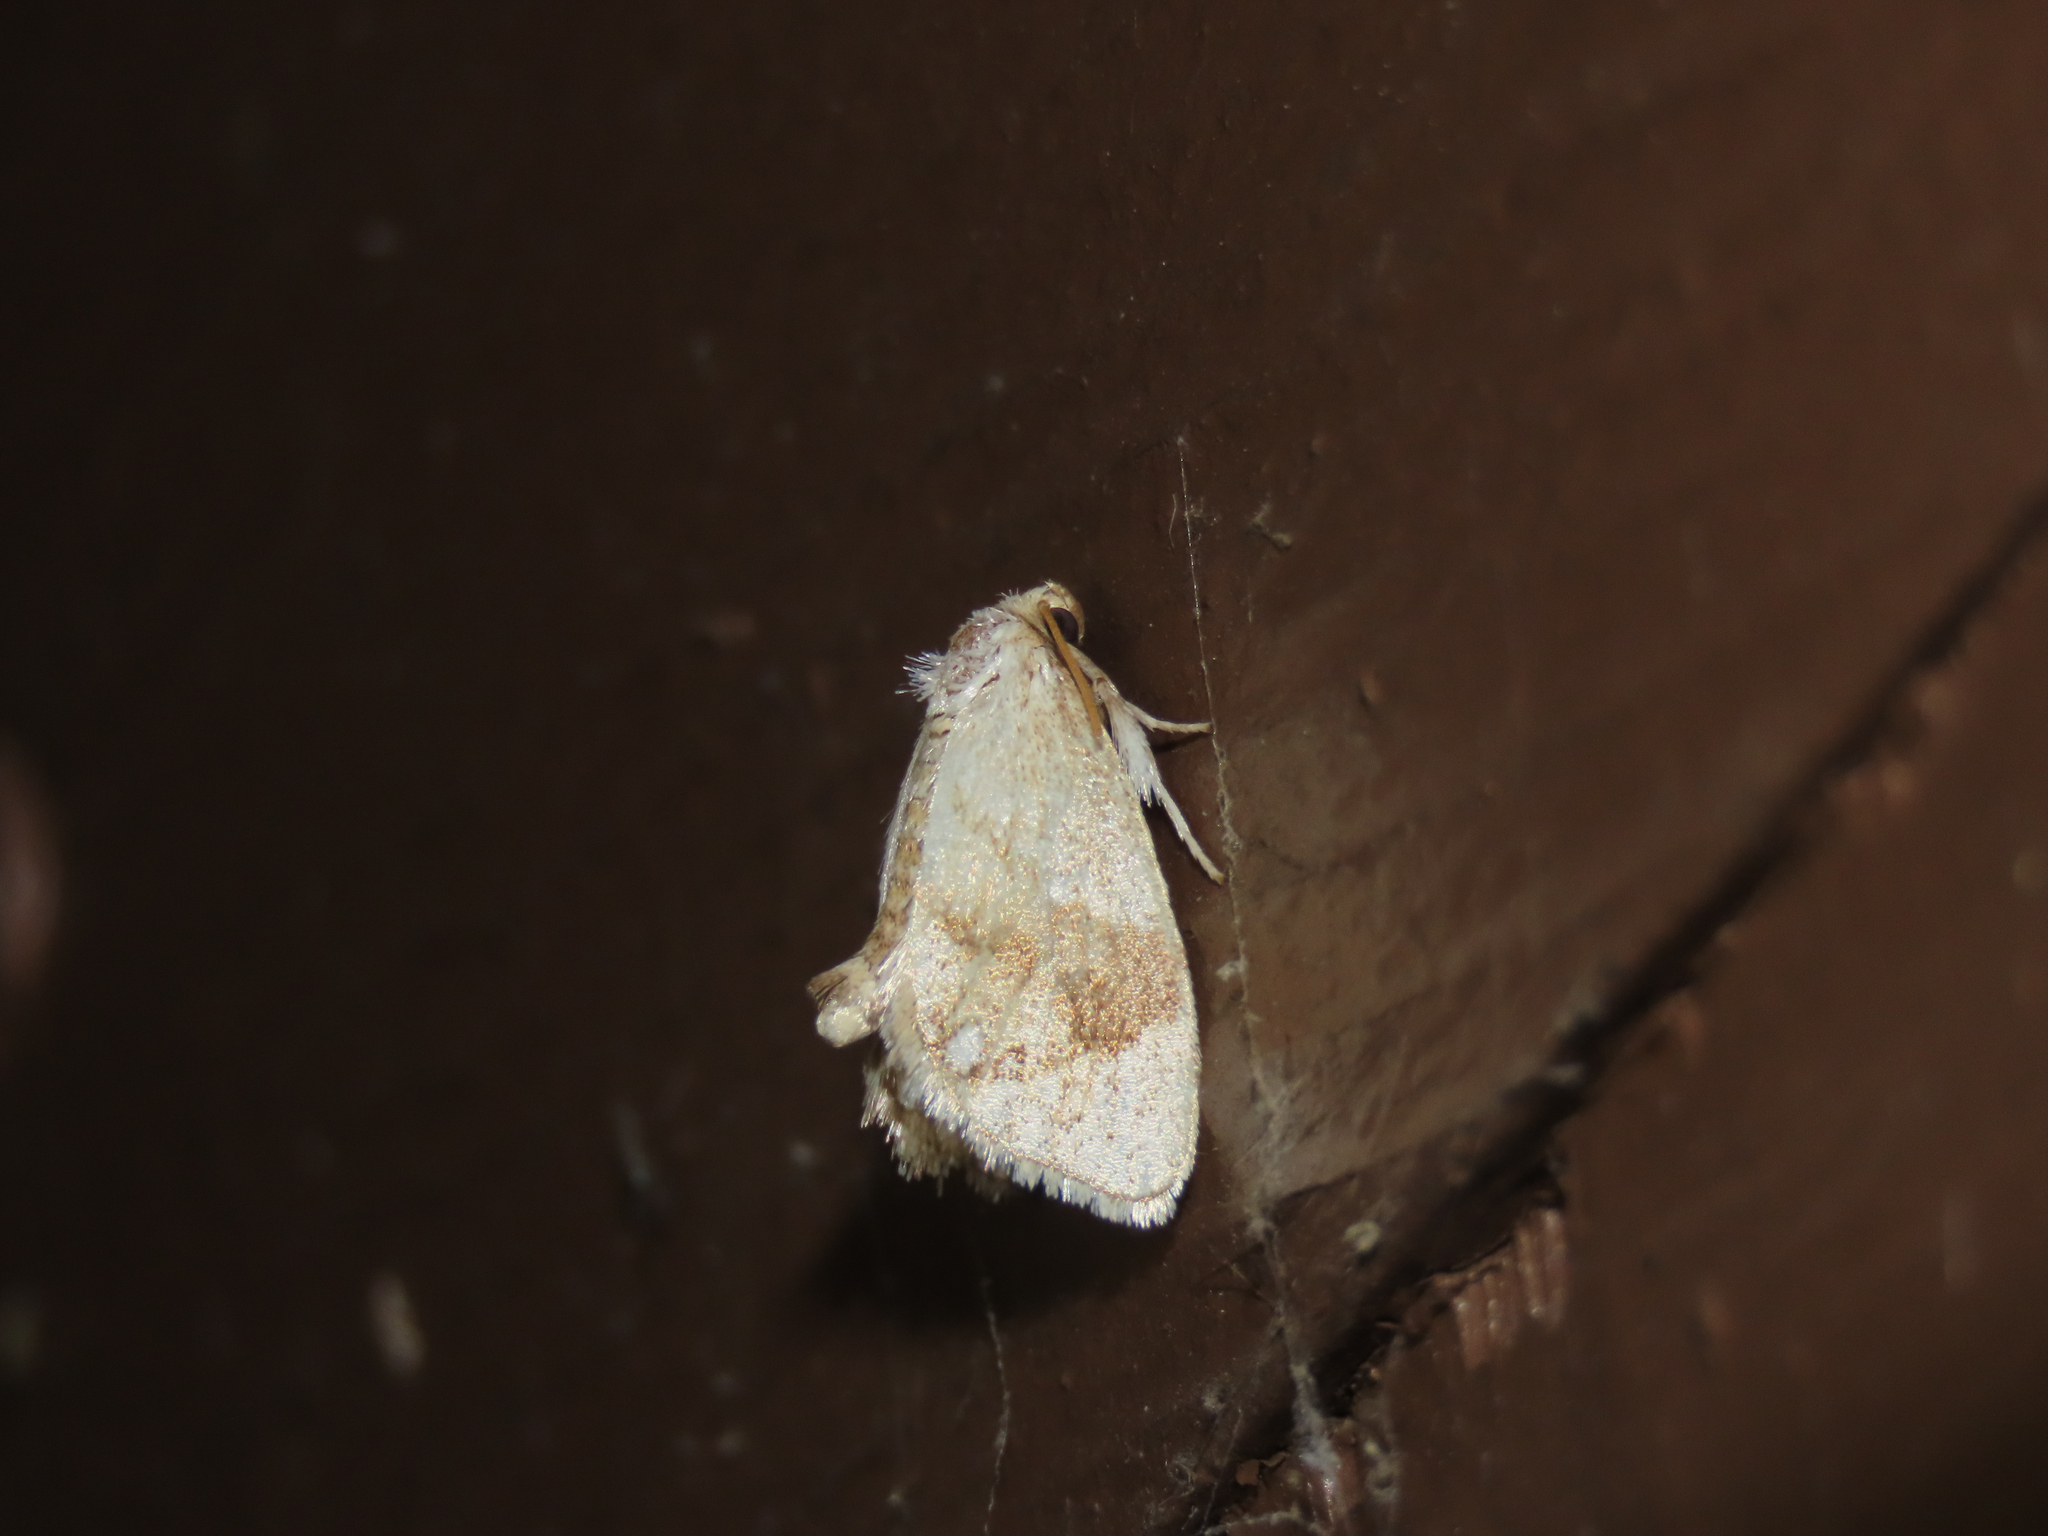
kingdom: Animalia
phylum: Arthropoda
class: Insecta
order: Lepidoptera
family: Limacodidae
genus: Packardia
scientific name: Packardia geminata
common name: Jeweled tailed slug moth
